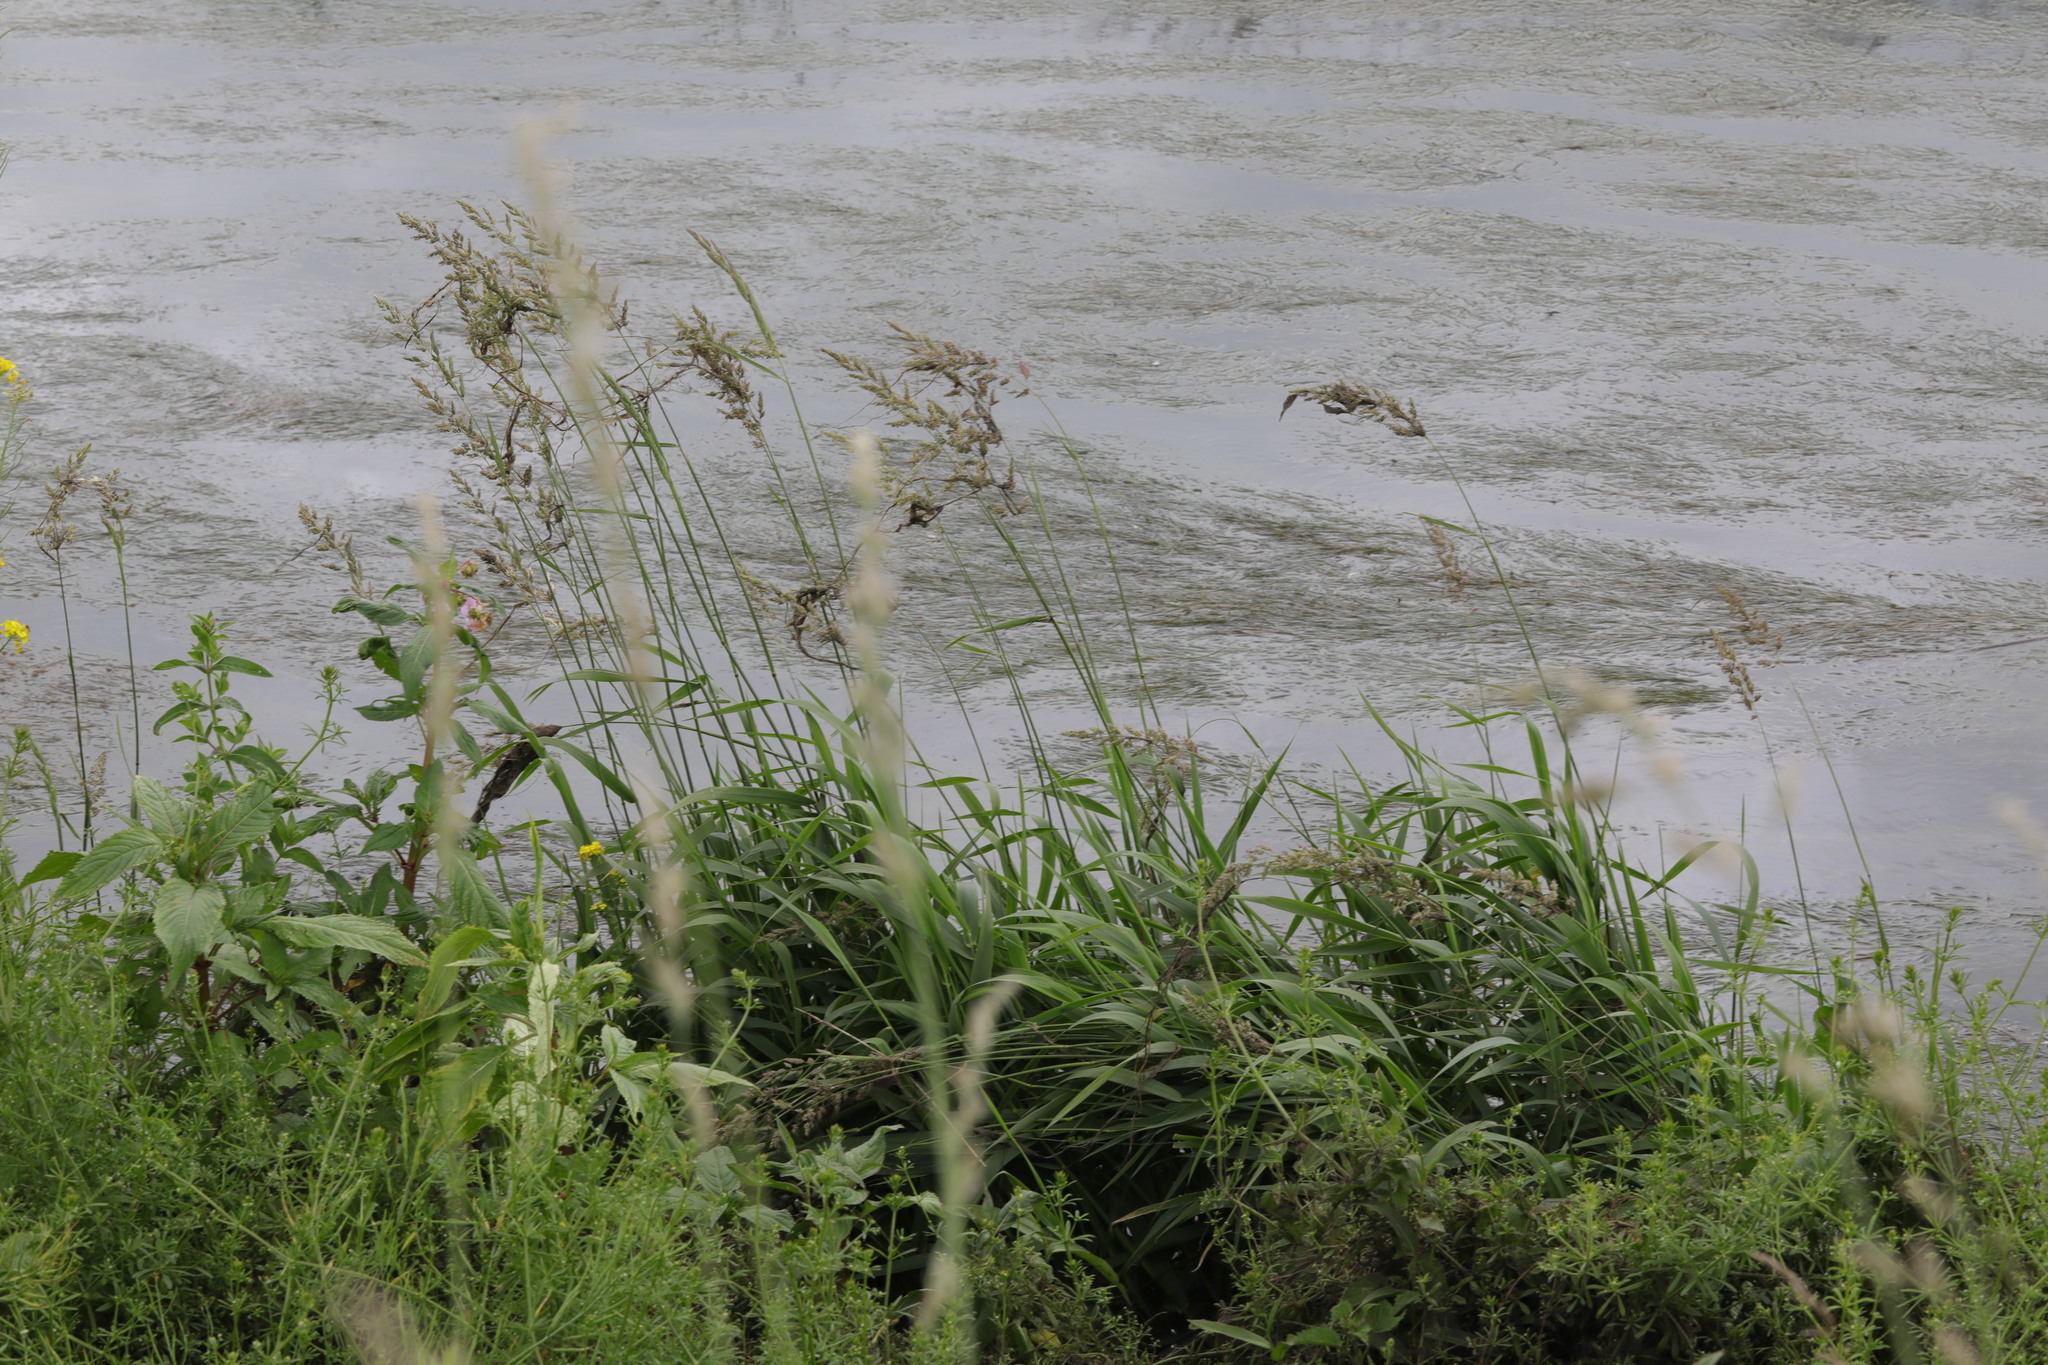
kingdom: Plantae
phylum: Tracheophyta
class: Liliopsida
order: Poales
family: Poaceae
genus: Phalaris
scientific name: Phalaris arundinacea
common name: Reed canary-grass
